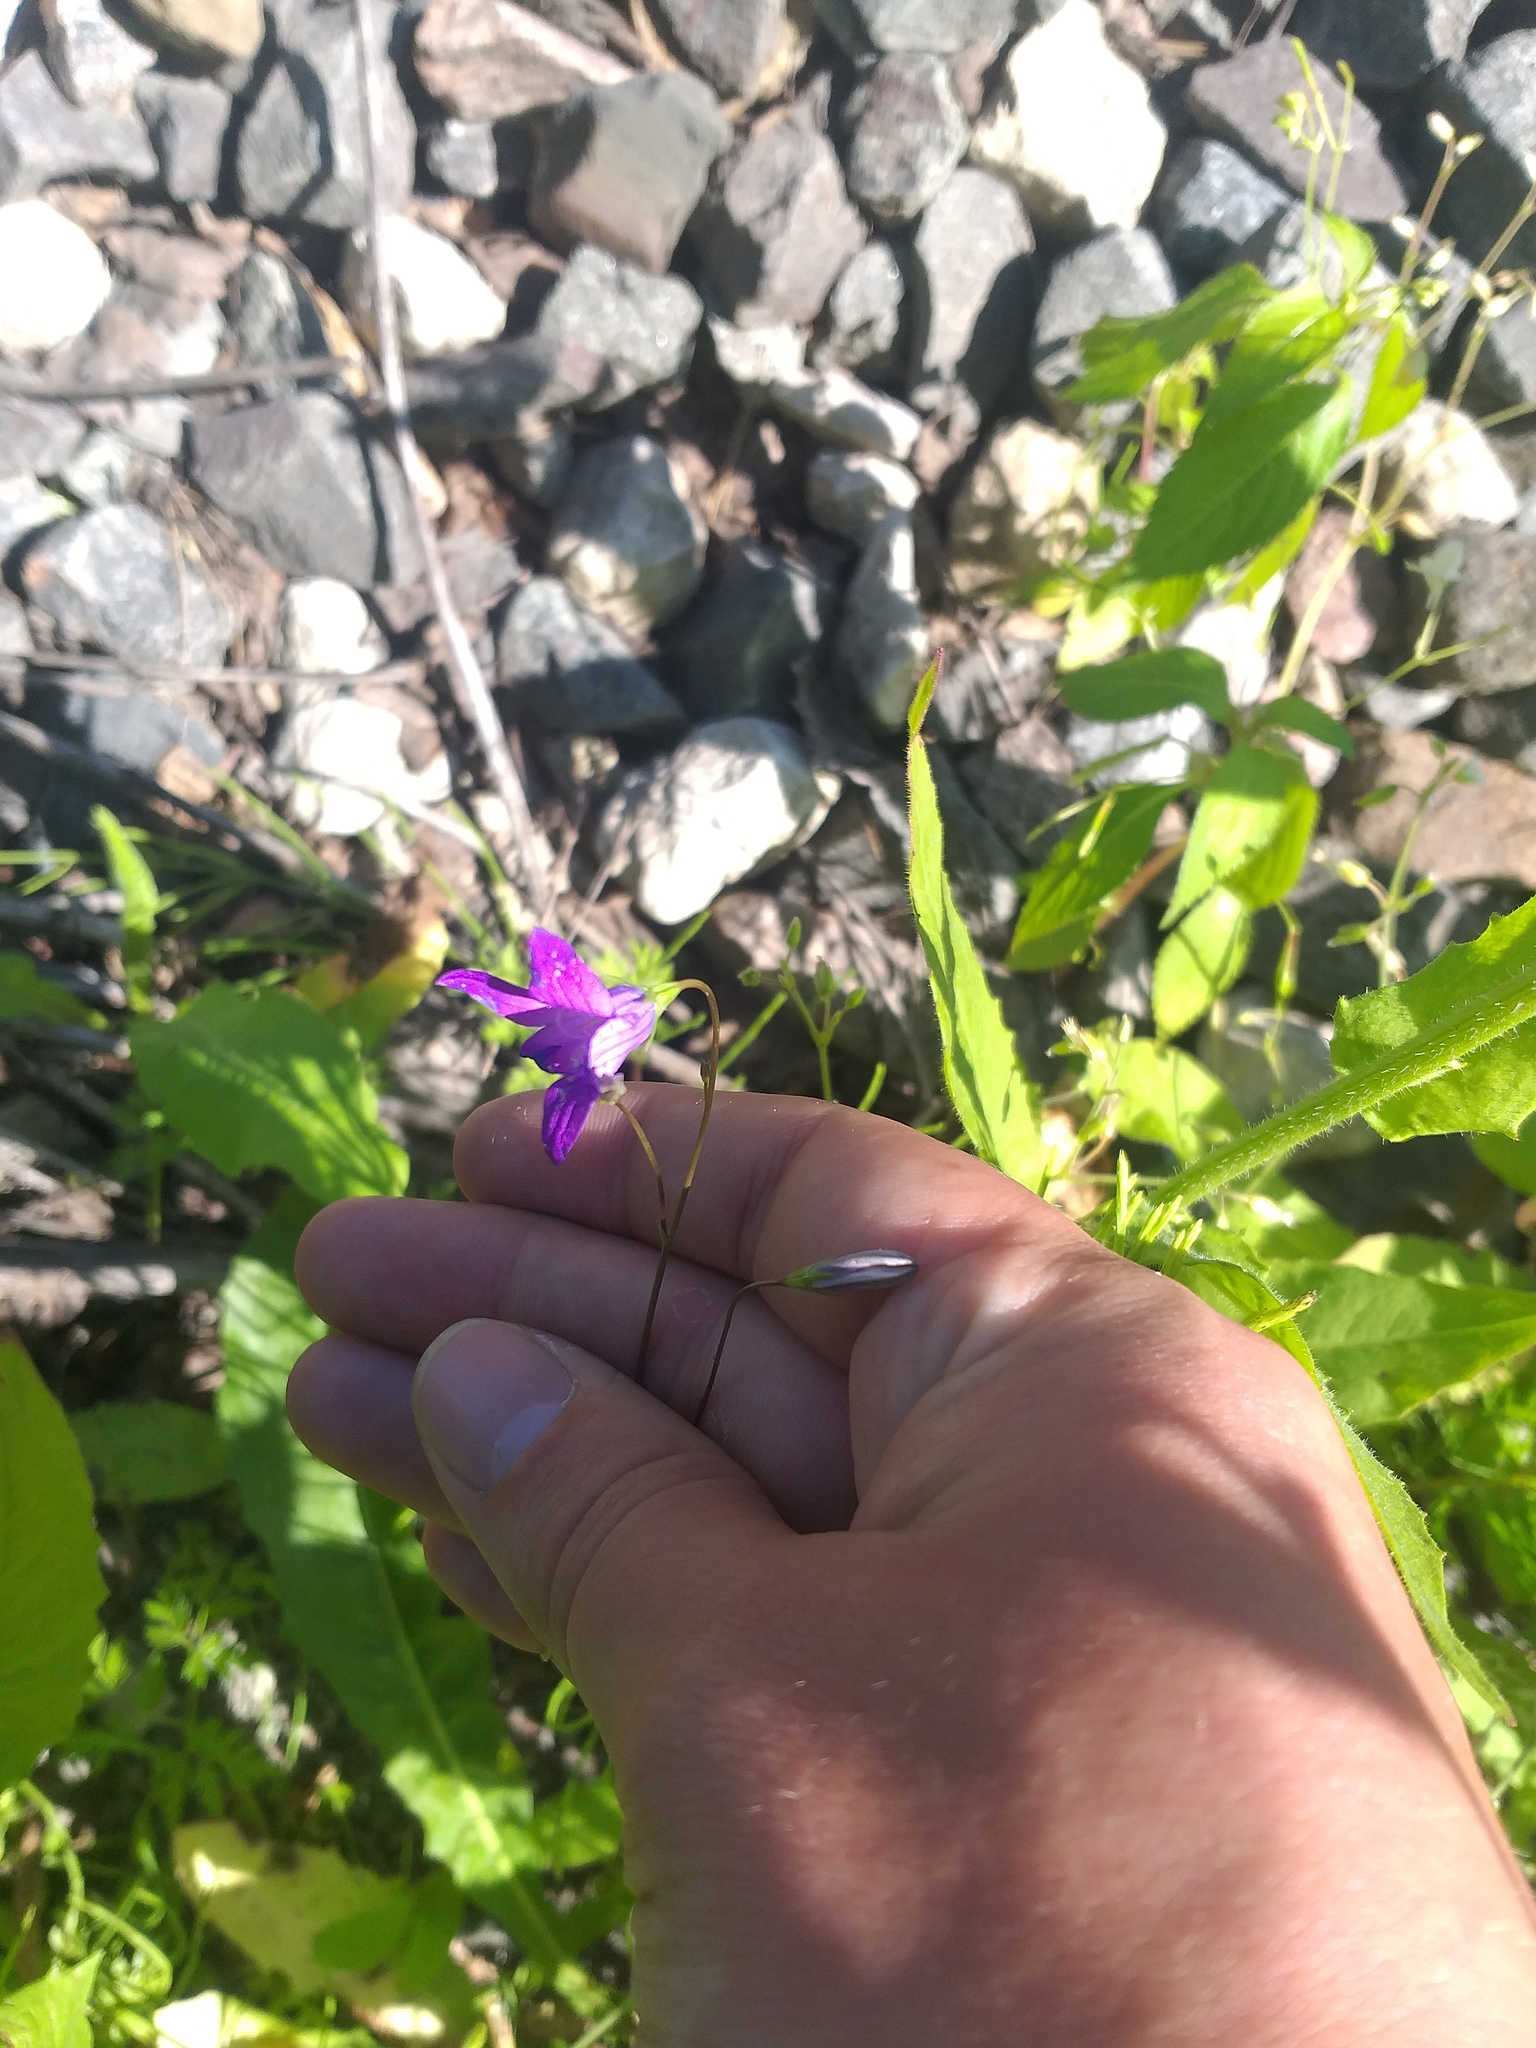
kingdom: Plantae
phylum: Tracheophyta
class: Magnoliopsida
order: Asterales
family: Campanulaceae
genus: Campanula
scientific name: Campanula patula
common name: Spreading bellflower
